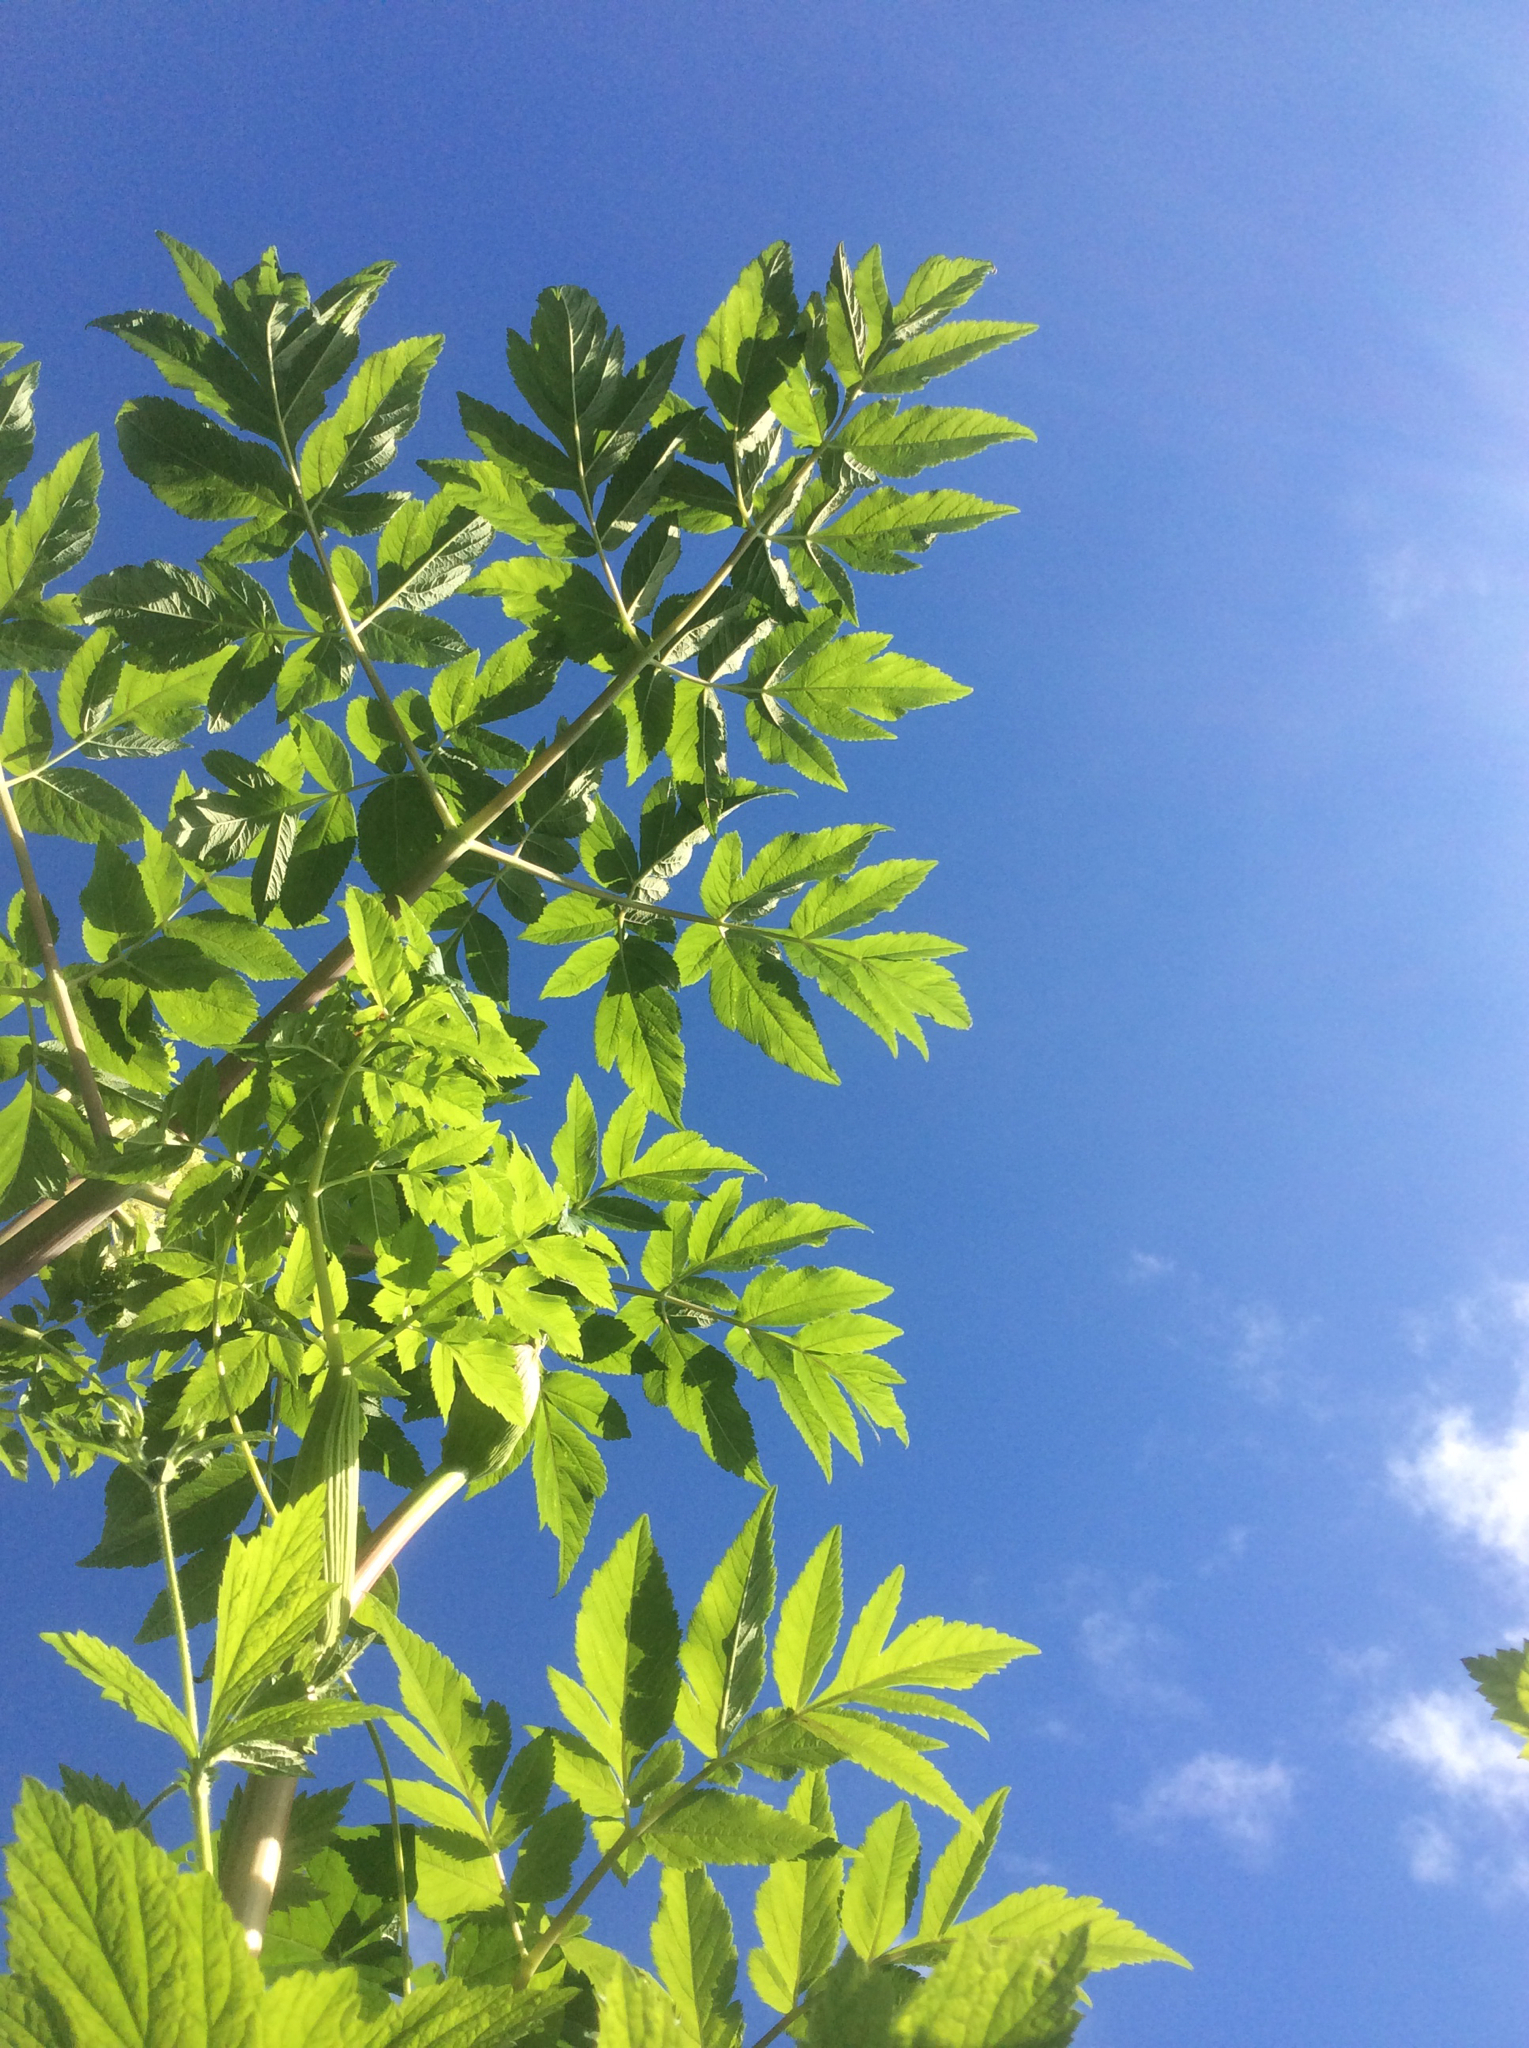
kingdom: Plantae
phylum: Tracheophyta
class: Magnoliopsida
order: Apiales
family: Apiaceae
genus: Angelica
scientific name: Angelica atropurpurea
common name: Great angelica
